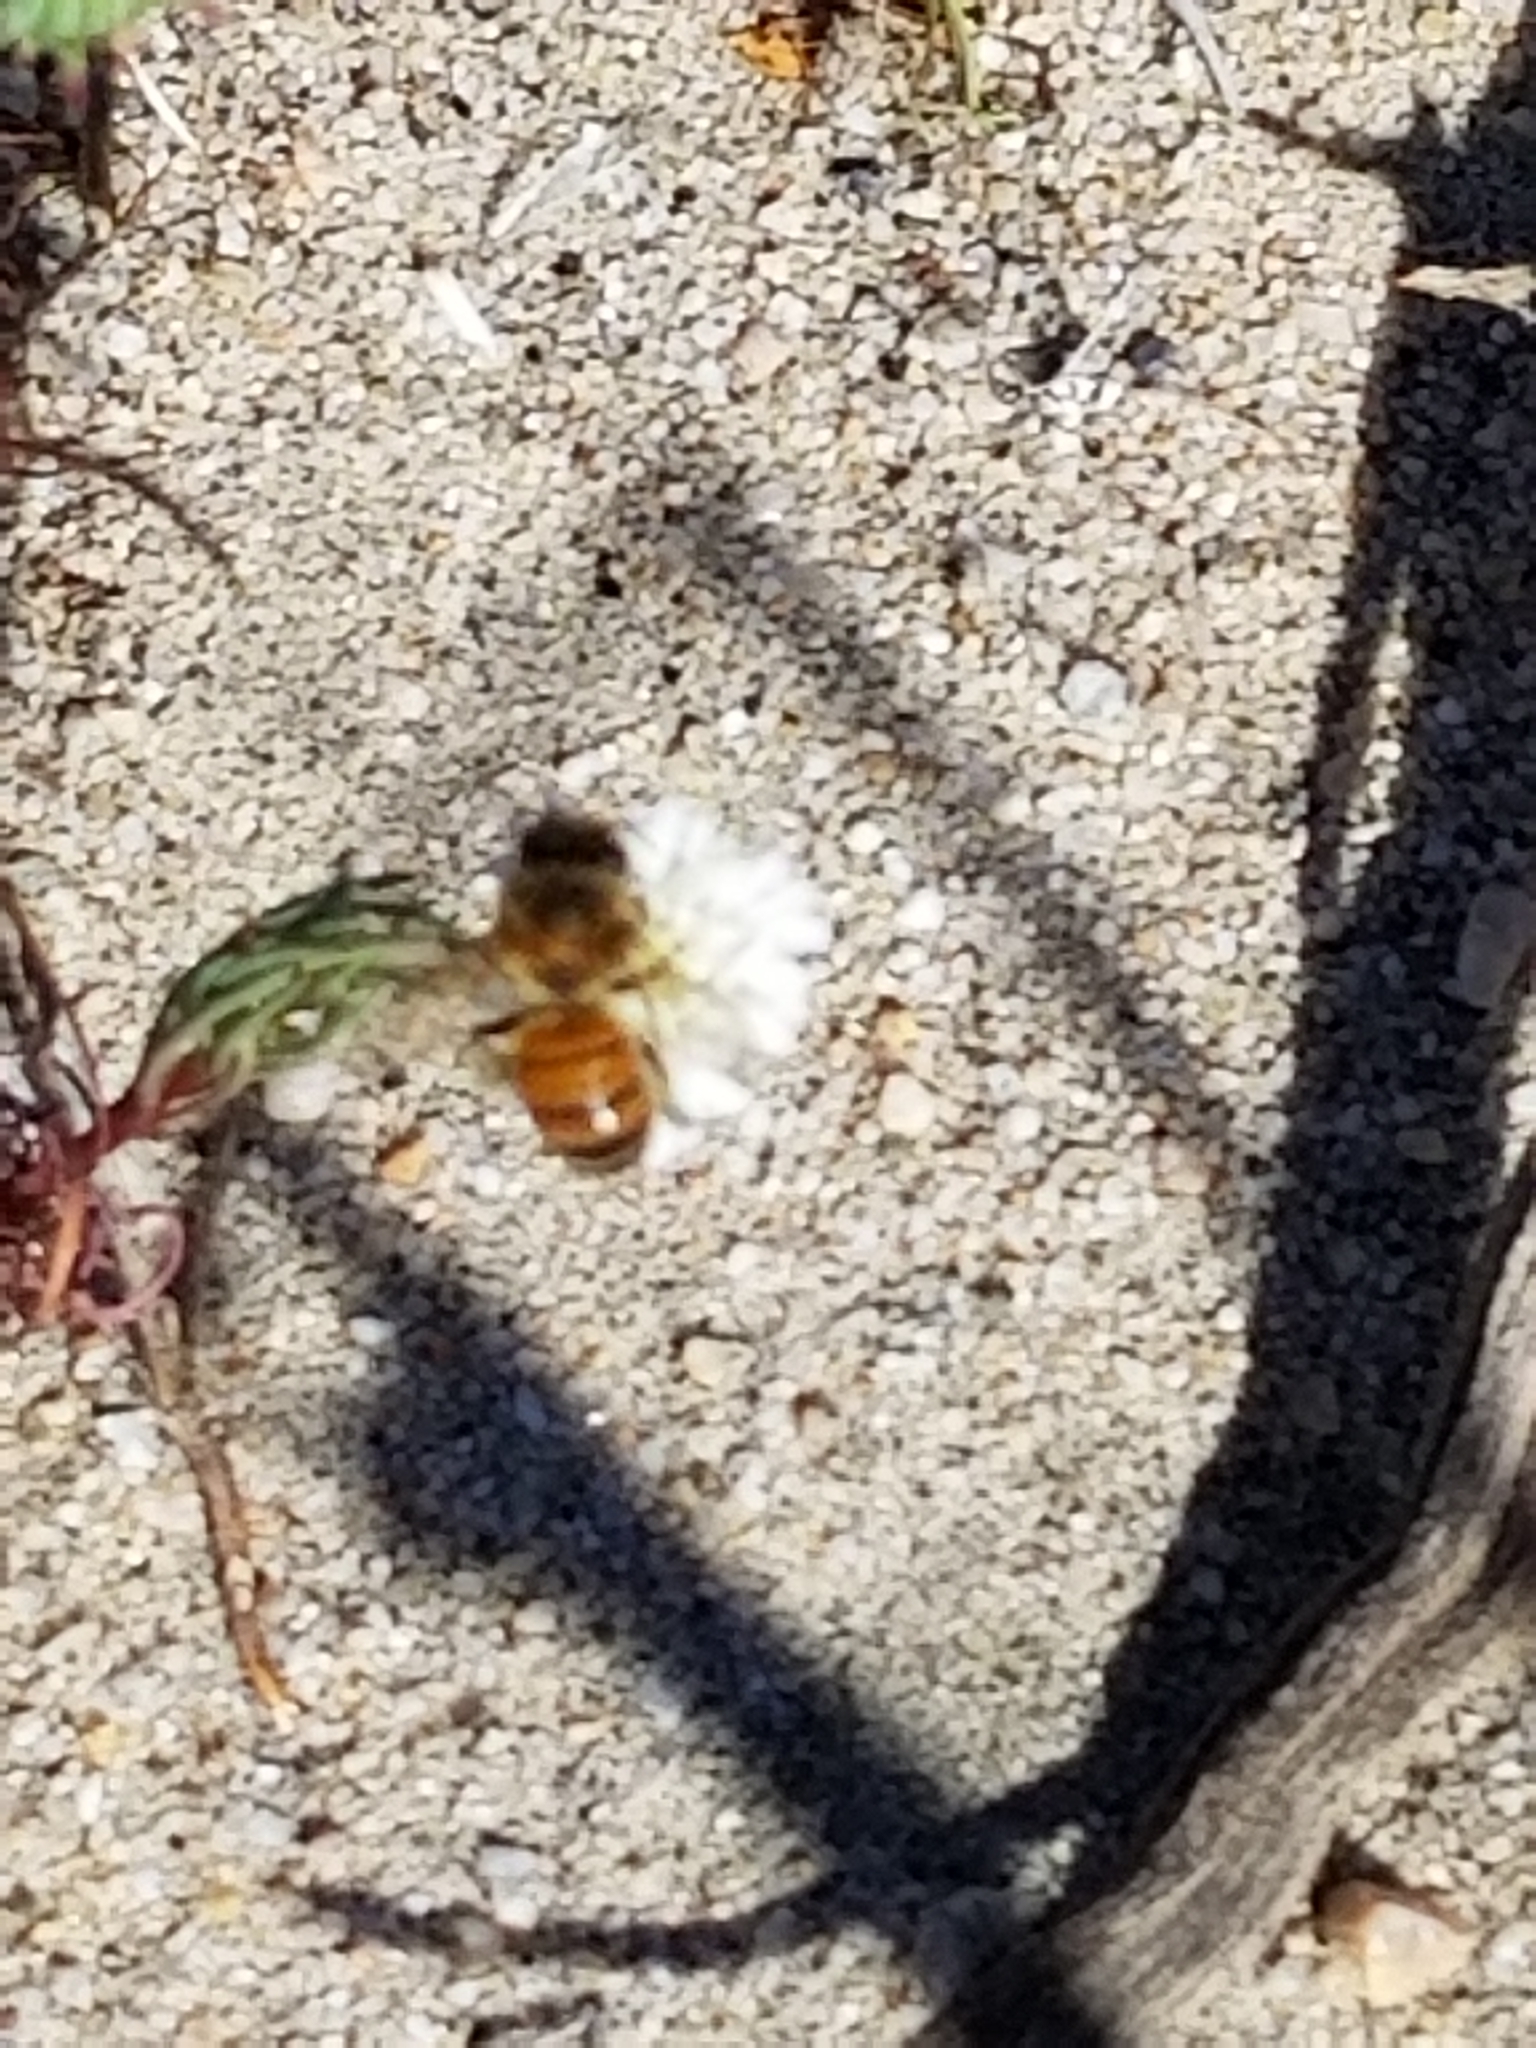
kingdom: Animalia
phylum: Arthropoda
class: Insecta
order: Hymenoptera
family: Apidae
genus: Apis
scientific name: Apis mellifera
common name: Honey bee
